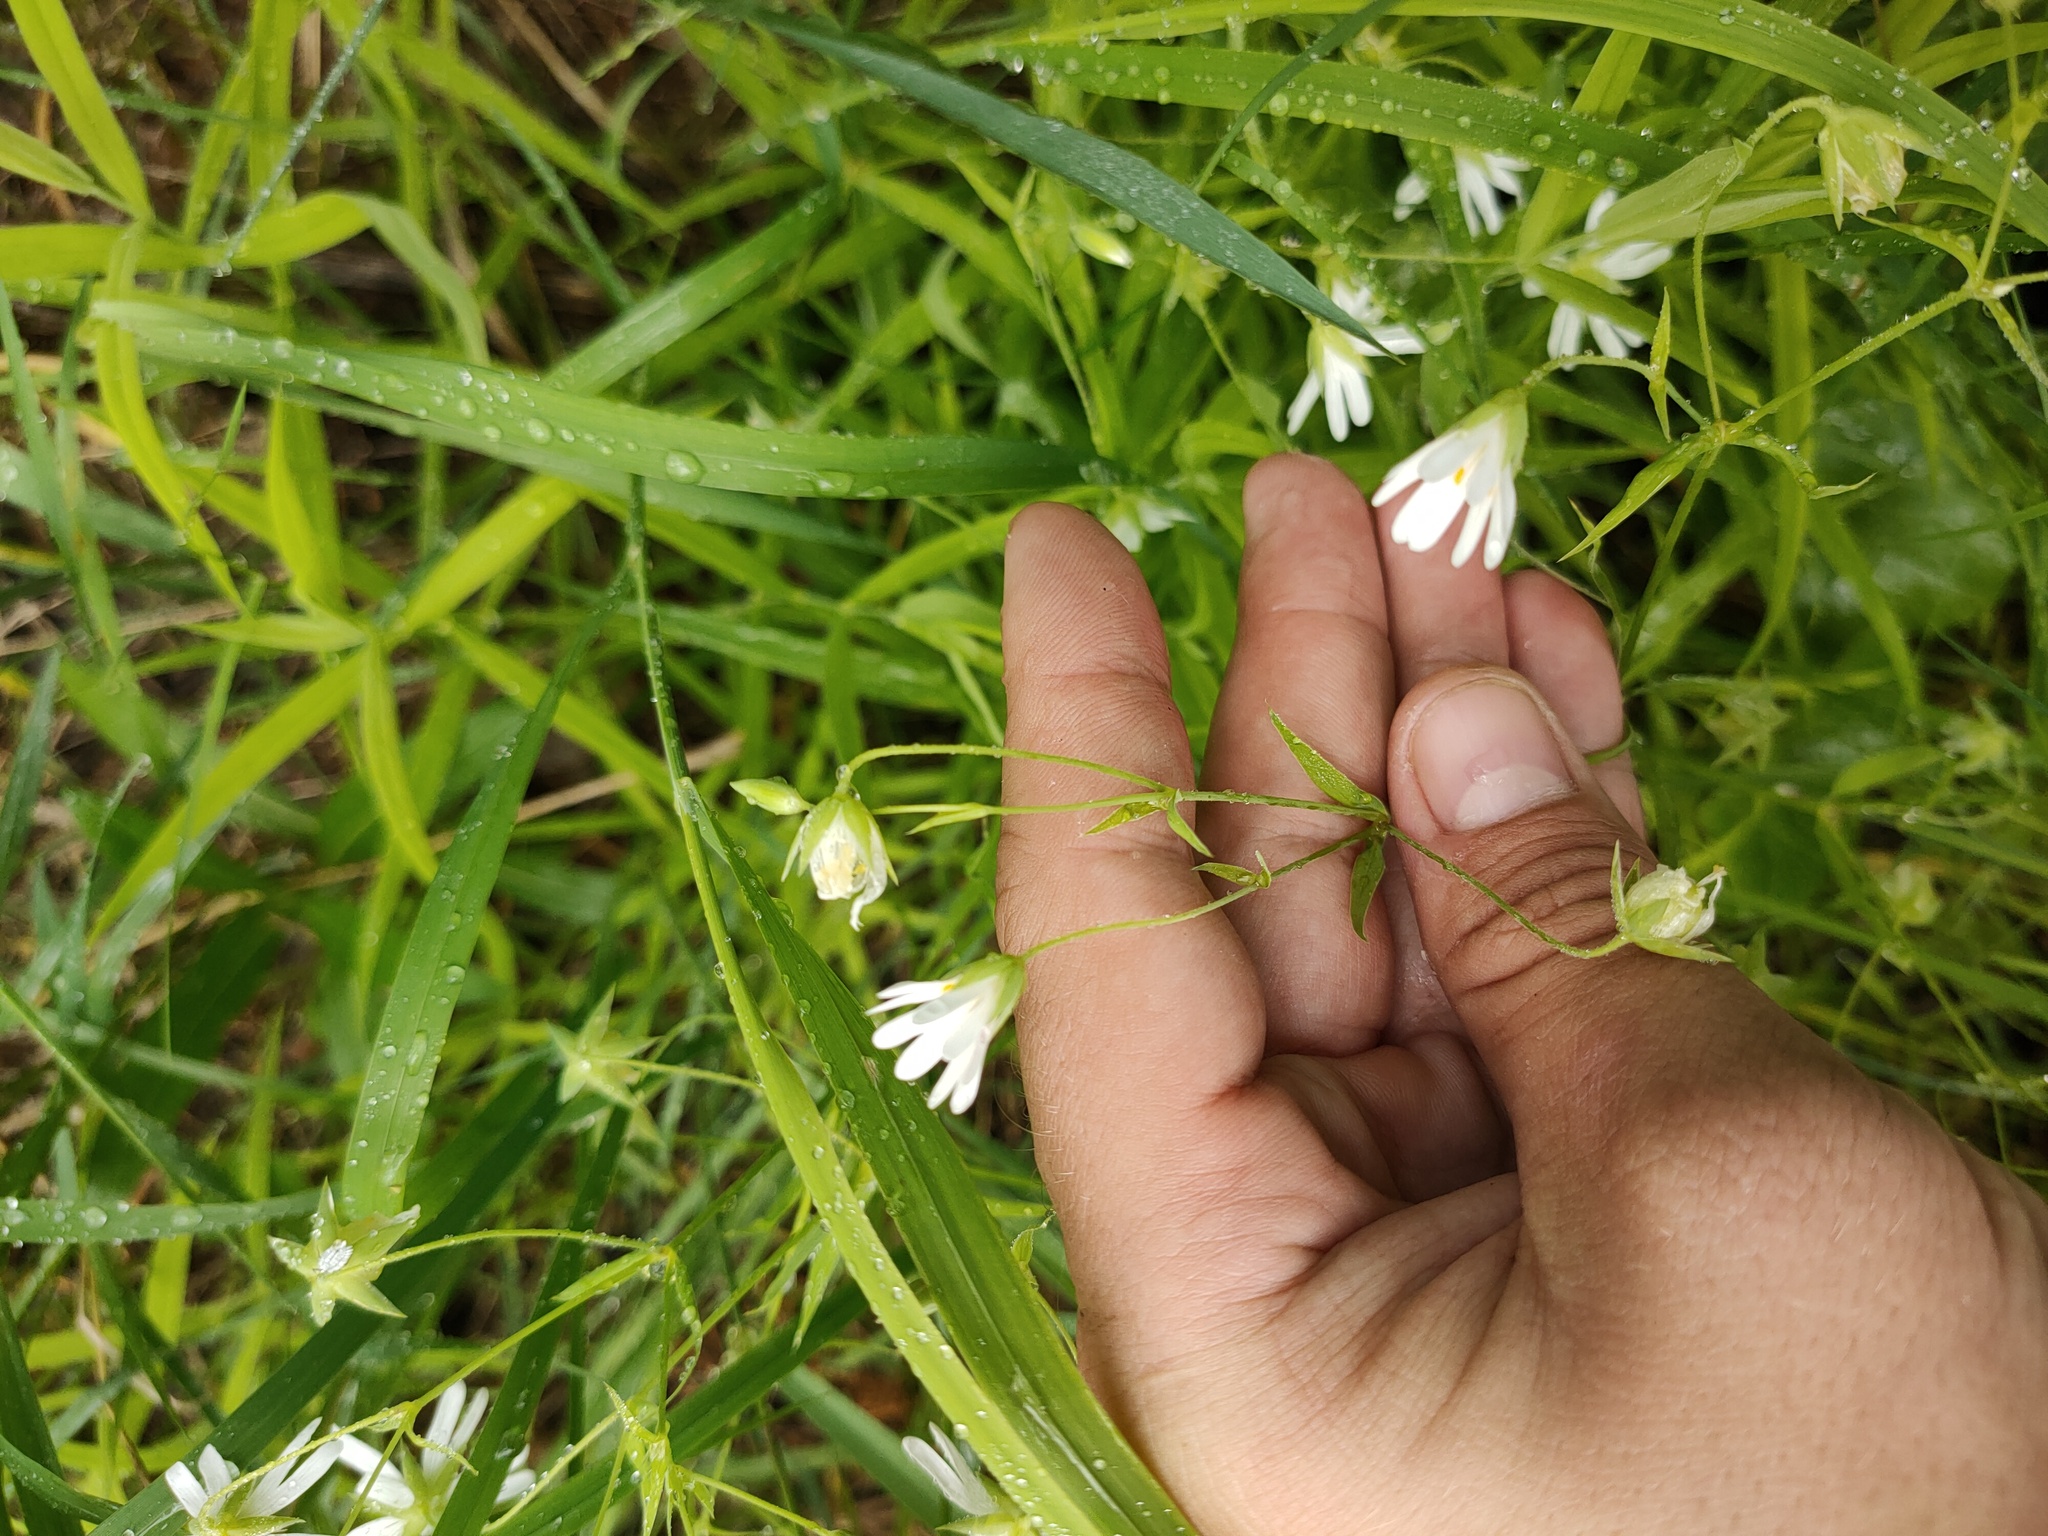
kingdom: Plantae
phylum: Tracheophyta
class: Magnoliopsida
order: Caryophyllales
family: Caryophyllaceae
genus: Rabelera
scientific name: Rabelera holostea
